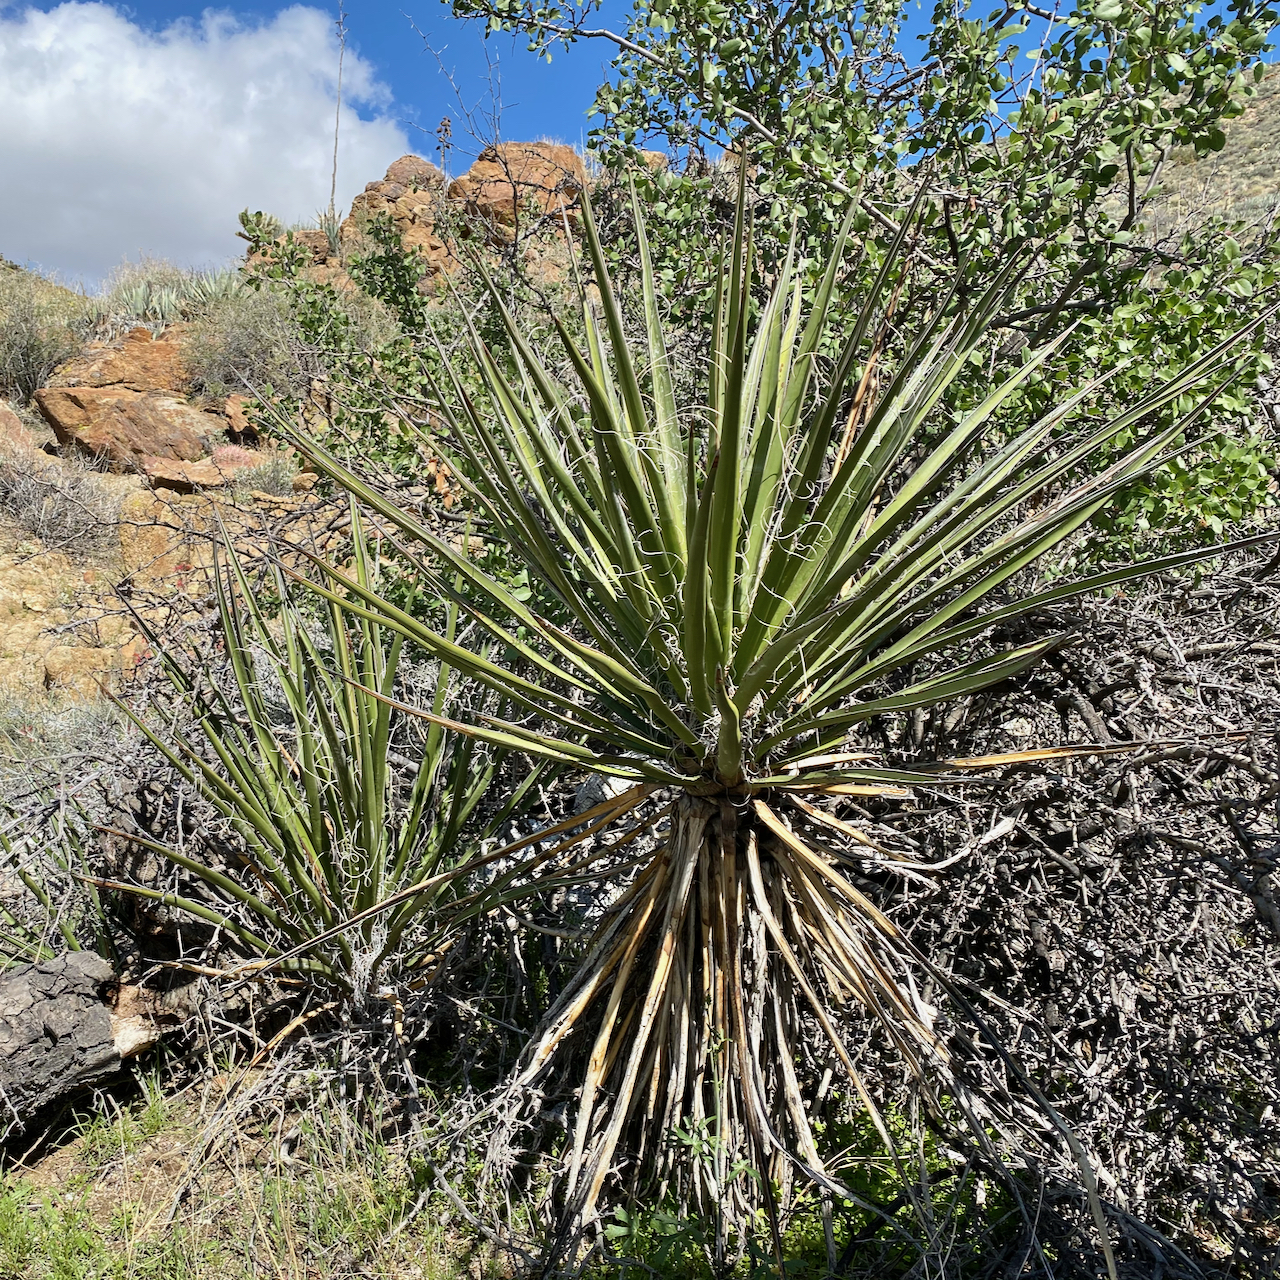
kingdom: Plantae
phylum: Tracheophyta
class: Liliopsida
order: Asparagales
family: Asparagaceae
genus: Yucca
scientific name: Yucca schidigera
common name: Mojave yucca
